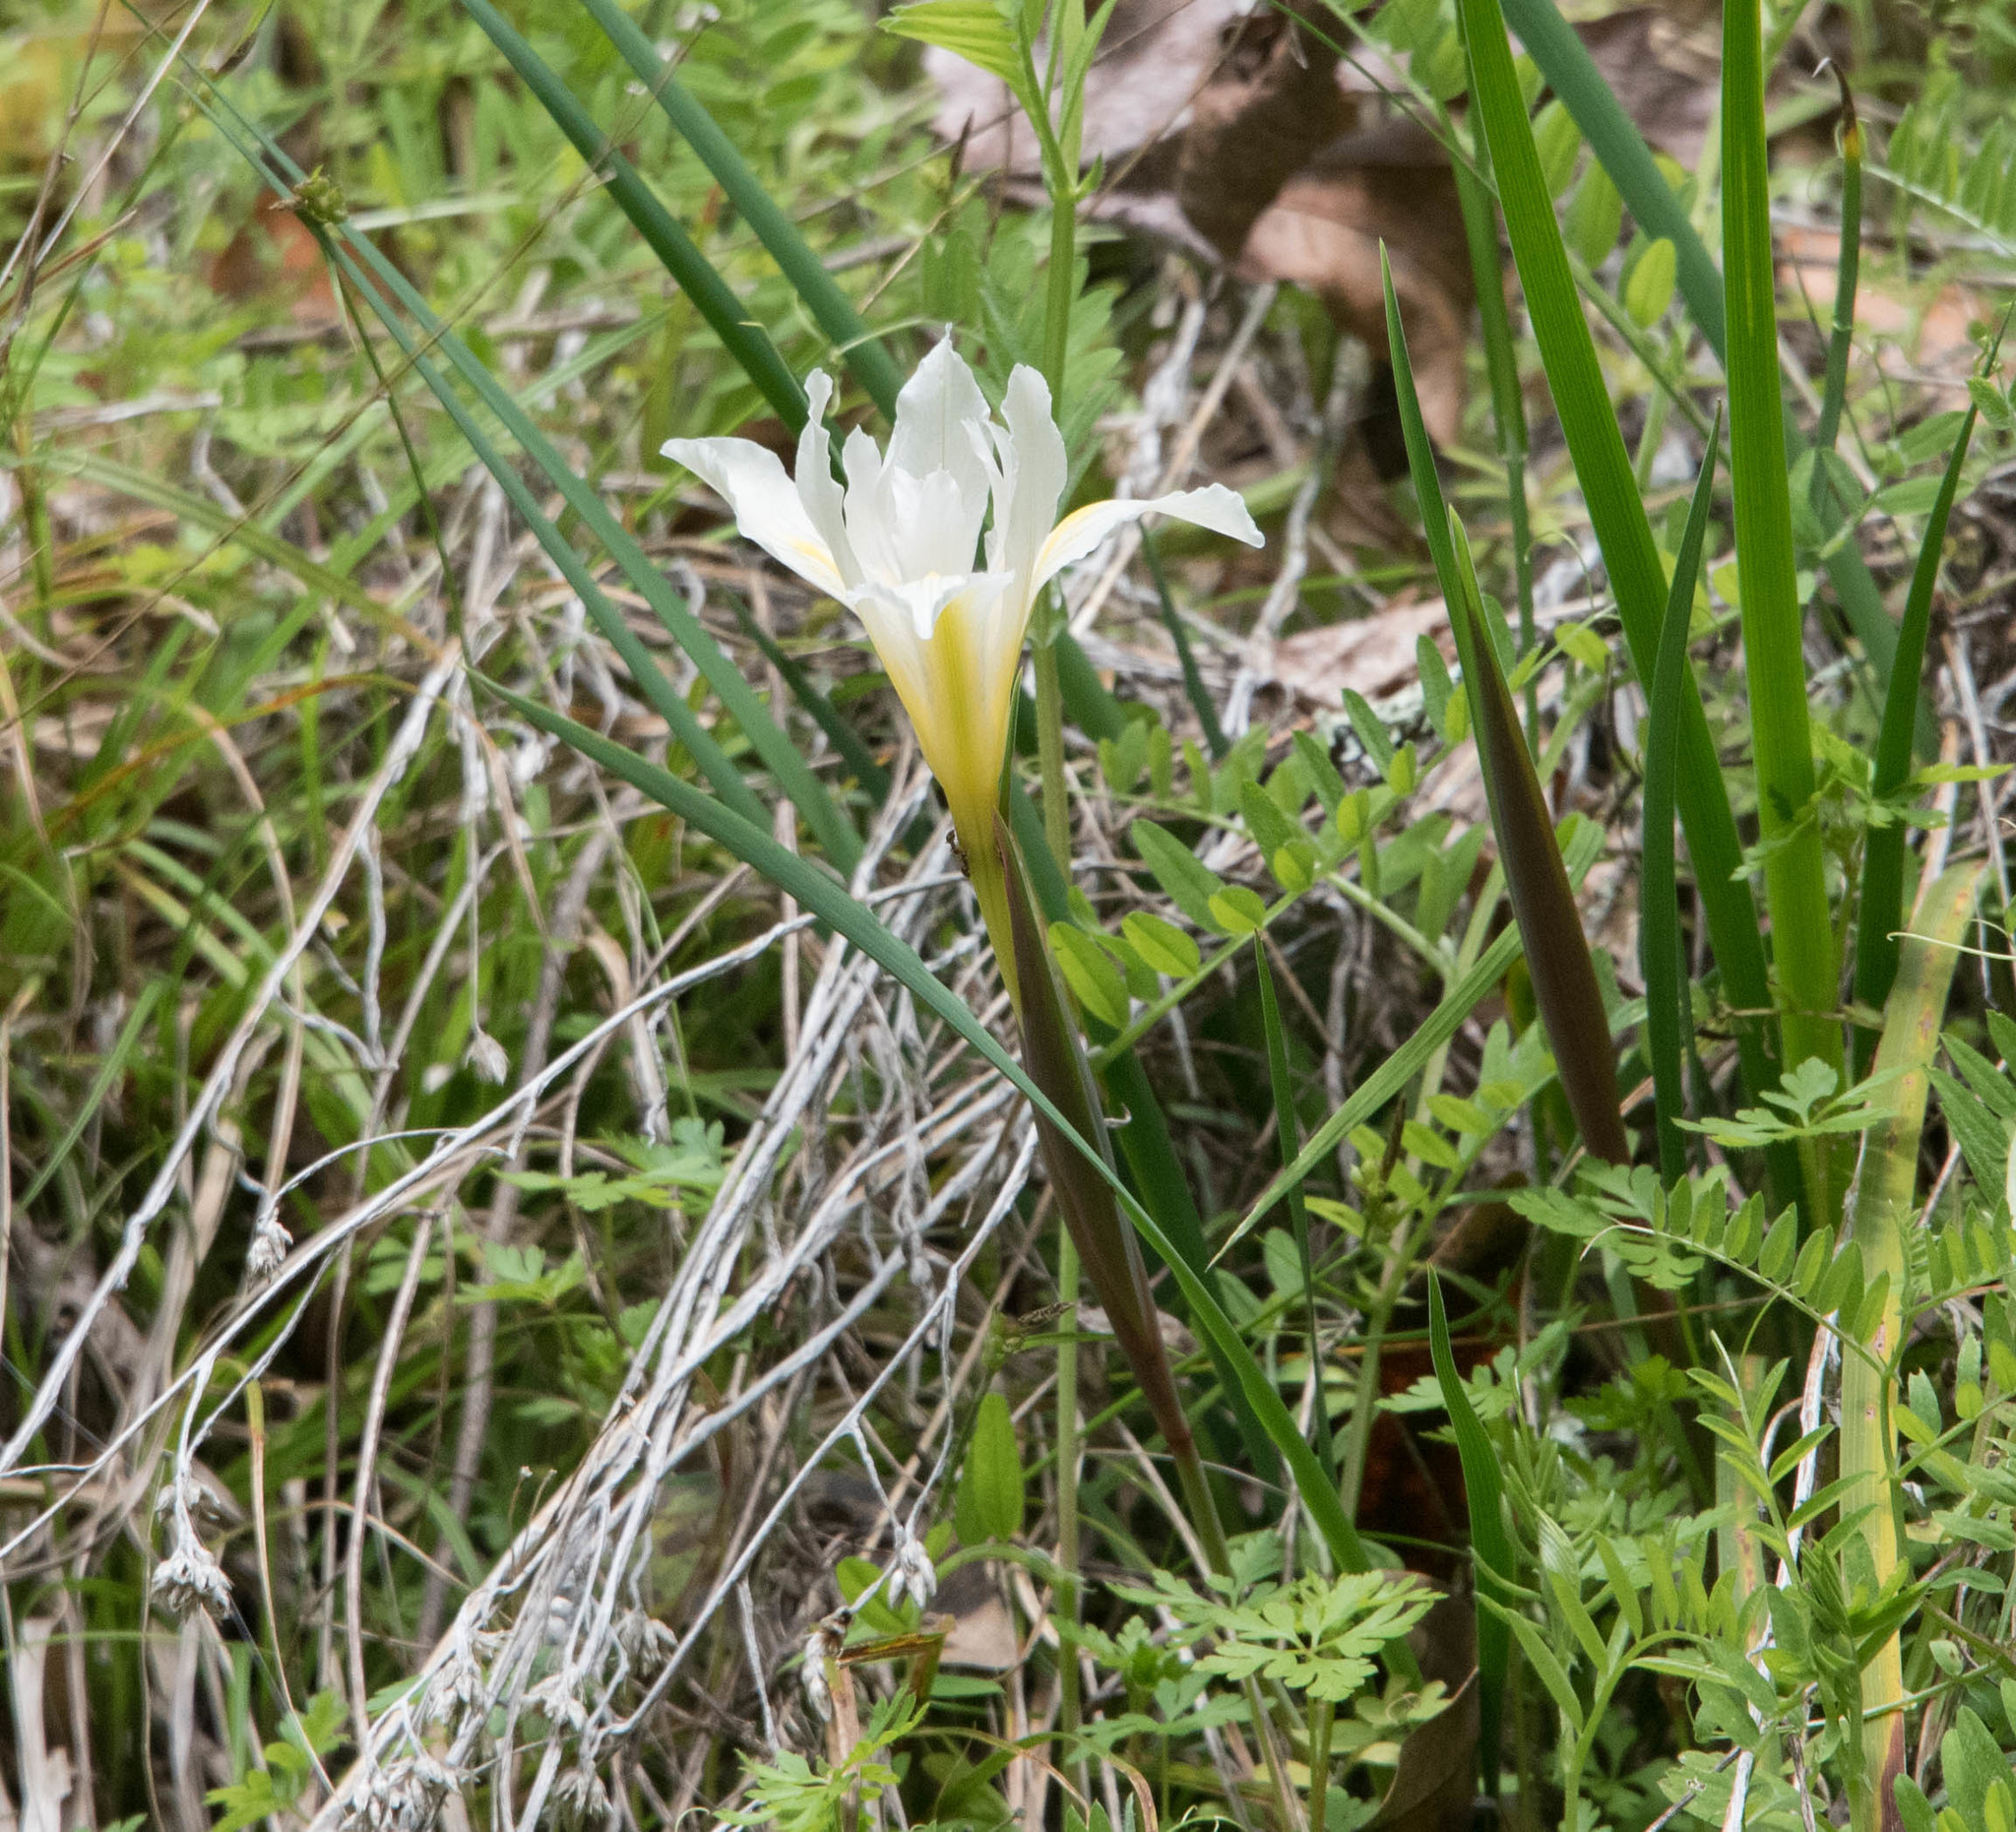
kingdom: Plantae
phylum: Tracheophyta
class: Liliopsida
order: Asparagales
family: Iridaceae
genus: Iris
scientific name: Iris fernaldii
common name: Fernald's iris
